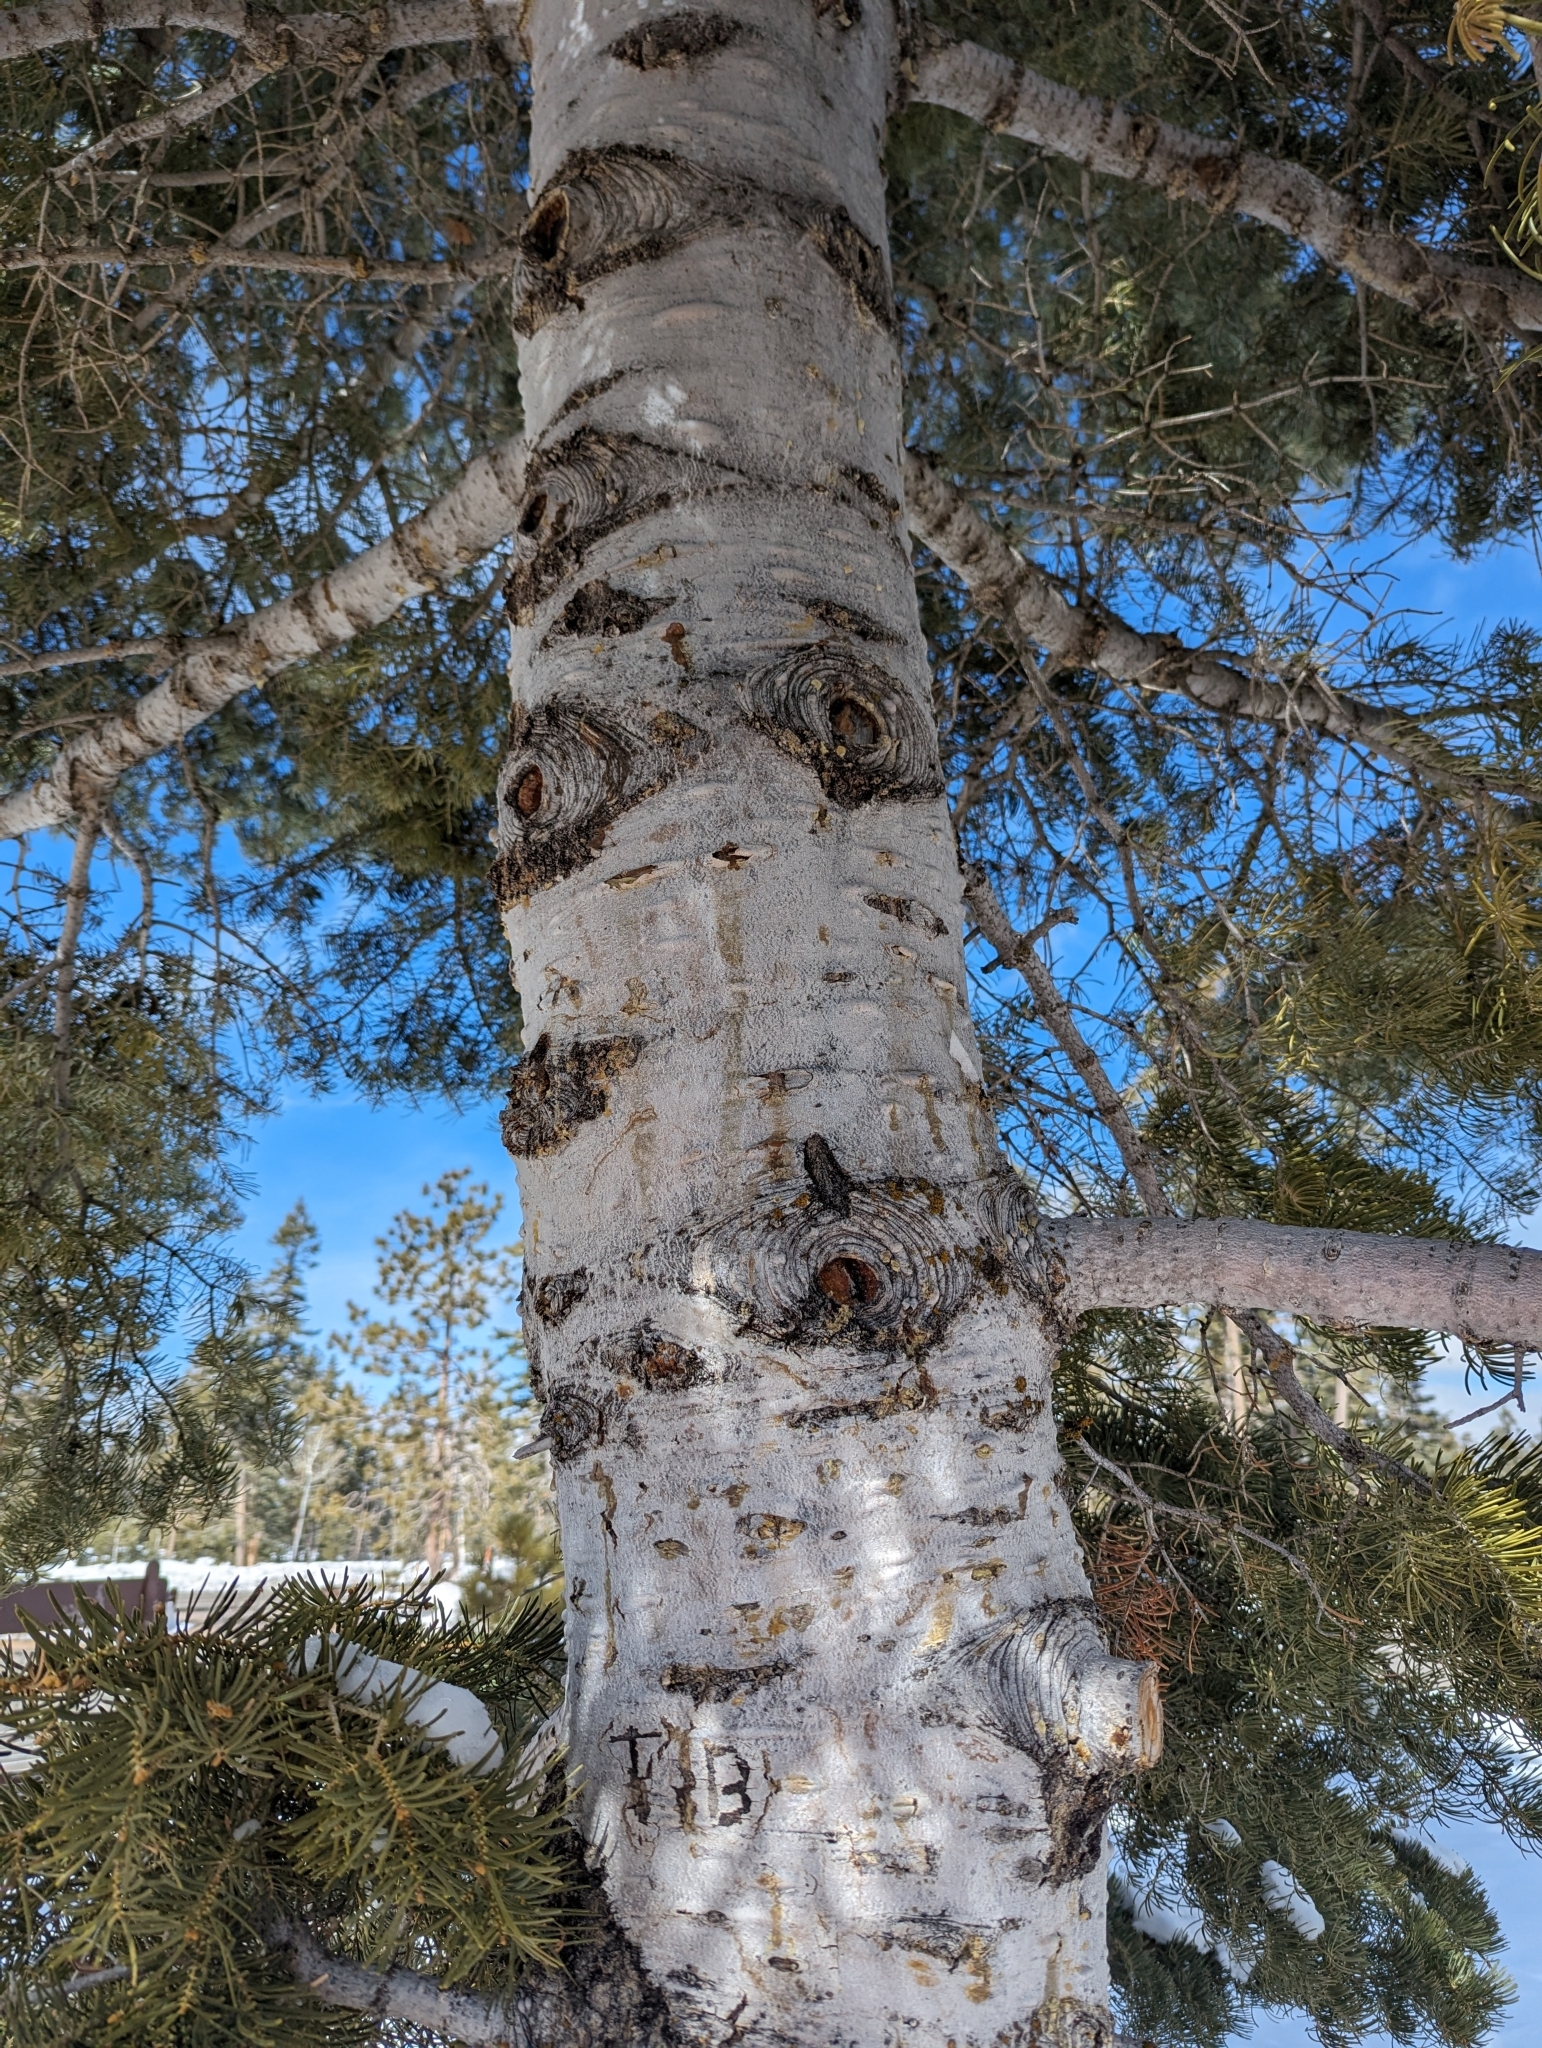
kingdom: Plantae
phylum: Tracheophyta
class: Pinopsida
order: Pinales
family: Pinaceae
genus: Abies
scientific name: Abies concolor
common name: Colorado fir
